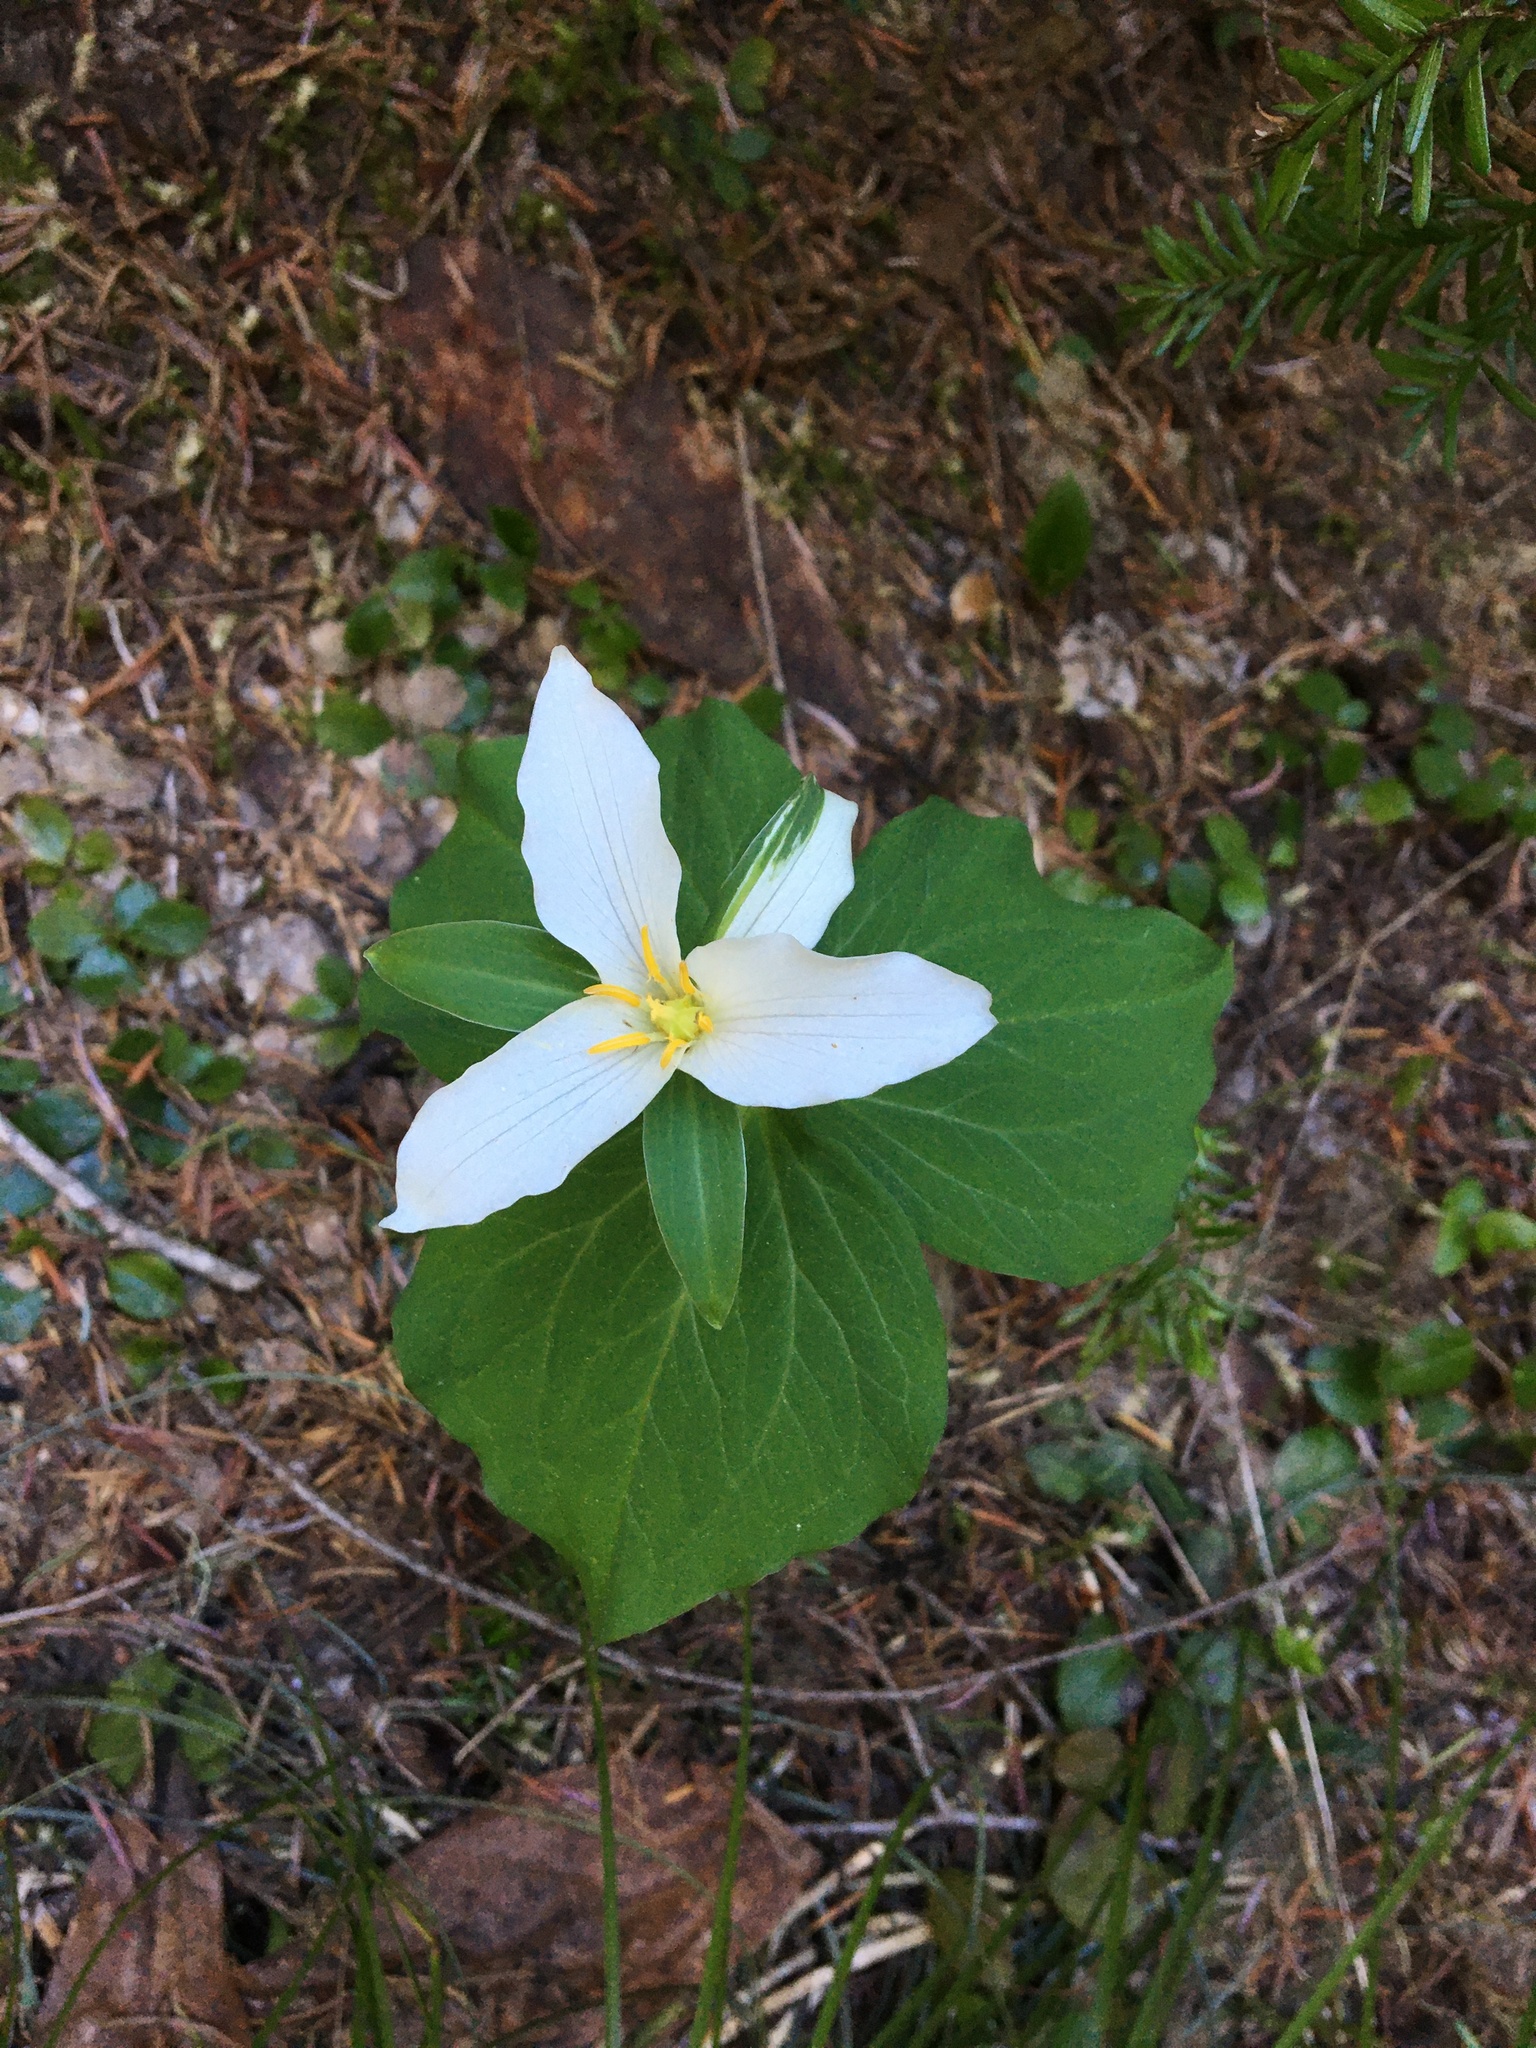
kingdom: Plantae
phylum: Tracheophyta
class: Liliopsida
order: Liliales
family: Melanthiaceae
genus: Trillium
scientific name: Trillium ovatum
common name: Pacific trillium
